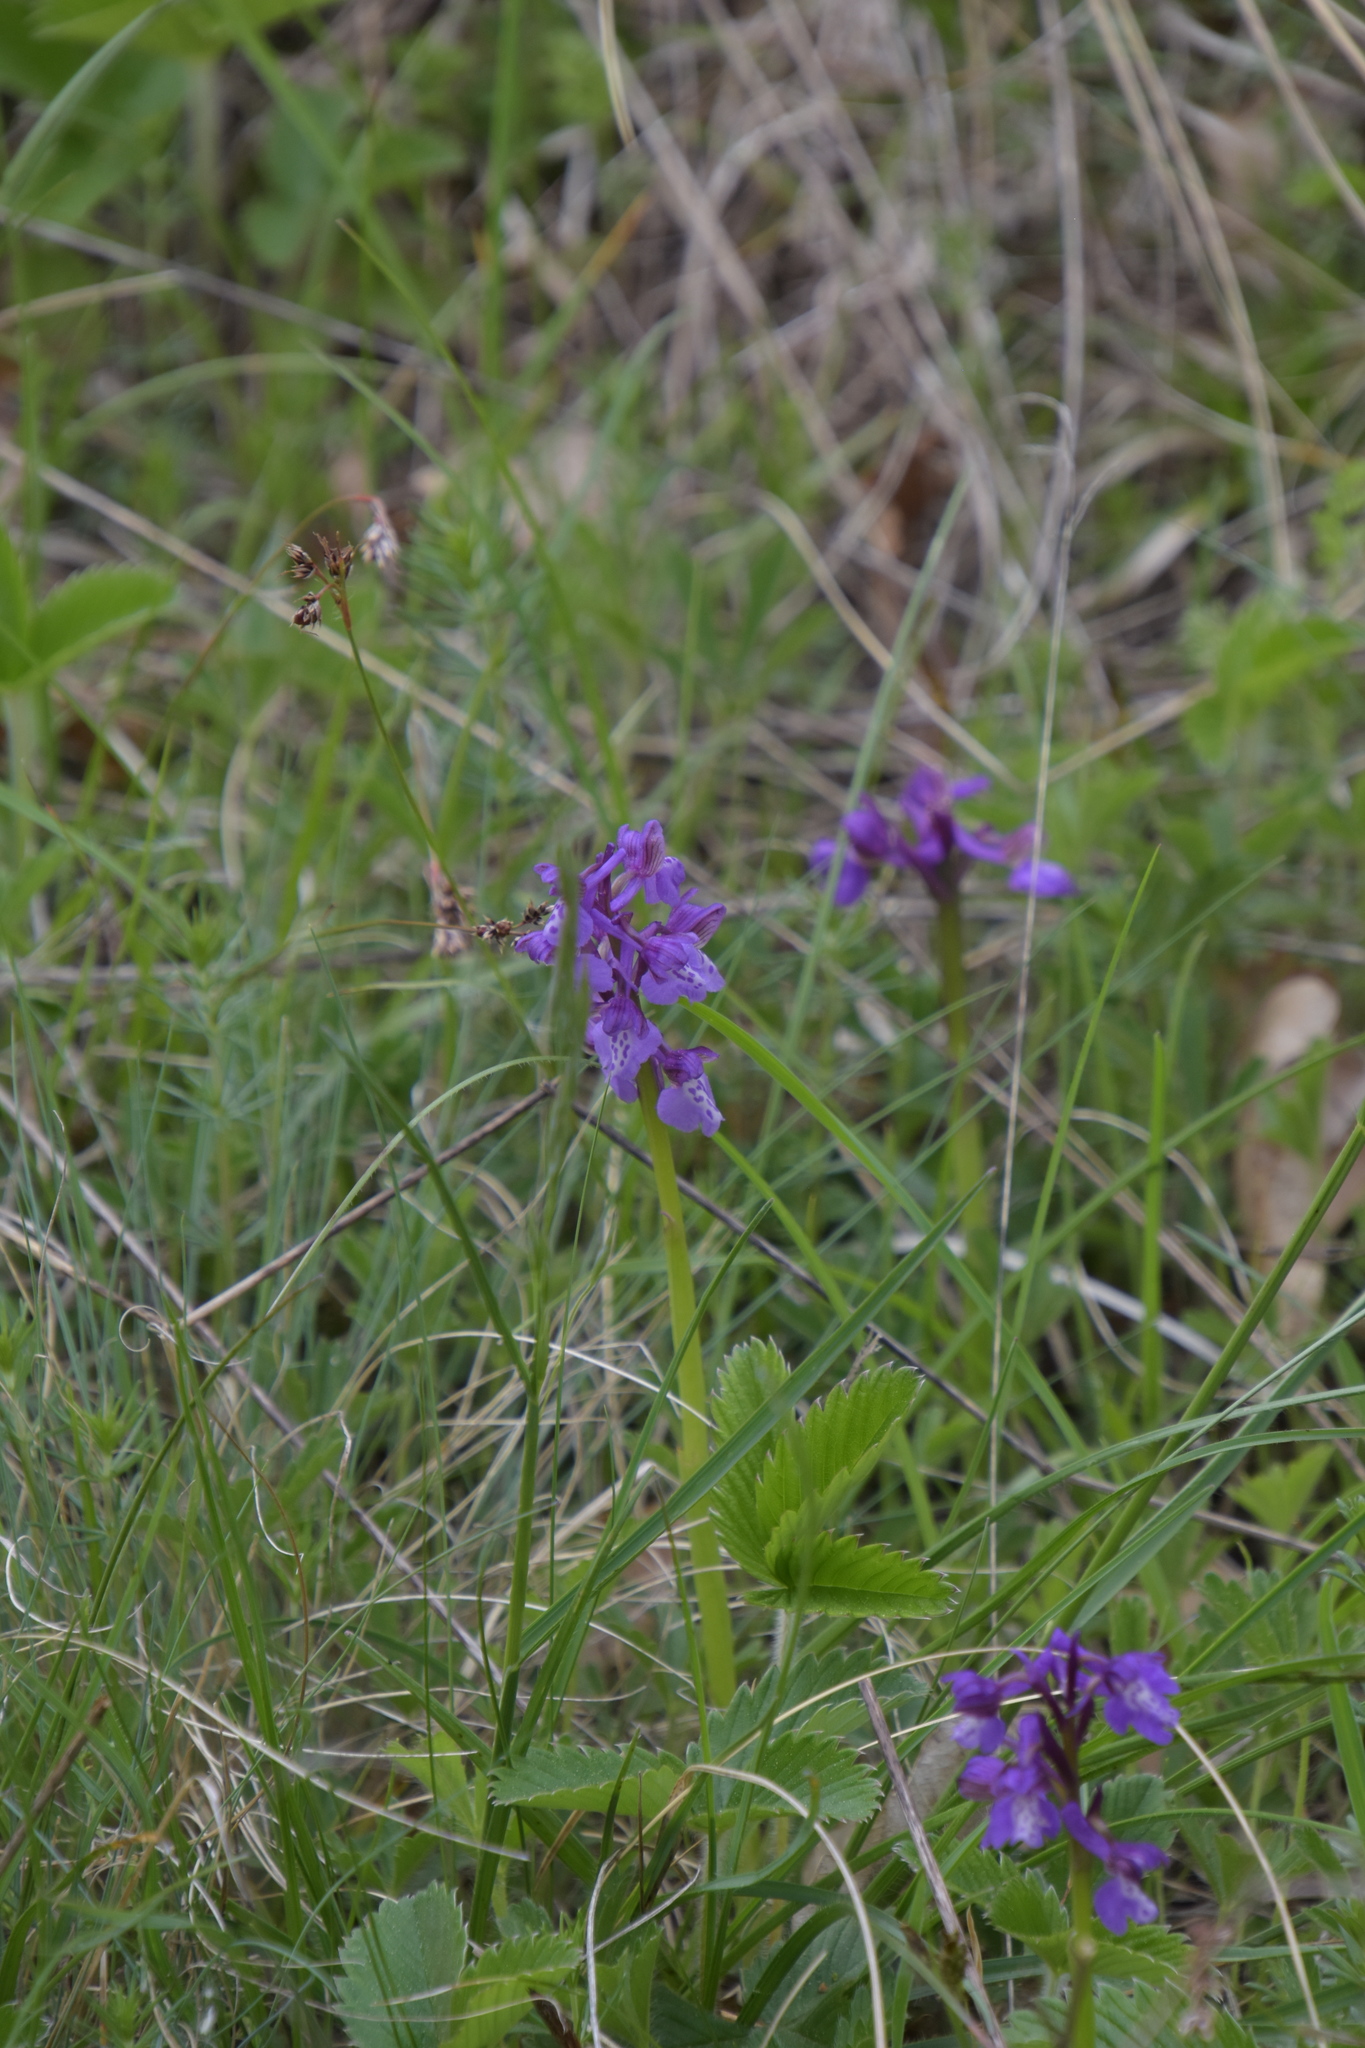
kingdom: Plantae
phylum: Tracheophyta
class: Liliopsida
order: Asparagales
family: Orchidaceae
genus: Anacamptis
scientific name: Anacamptis morio
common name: Green-winged orchid
